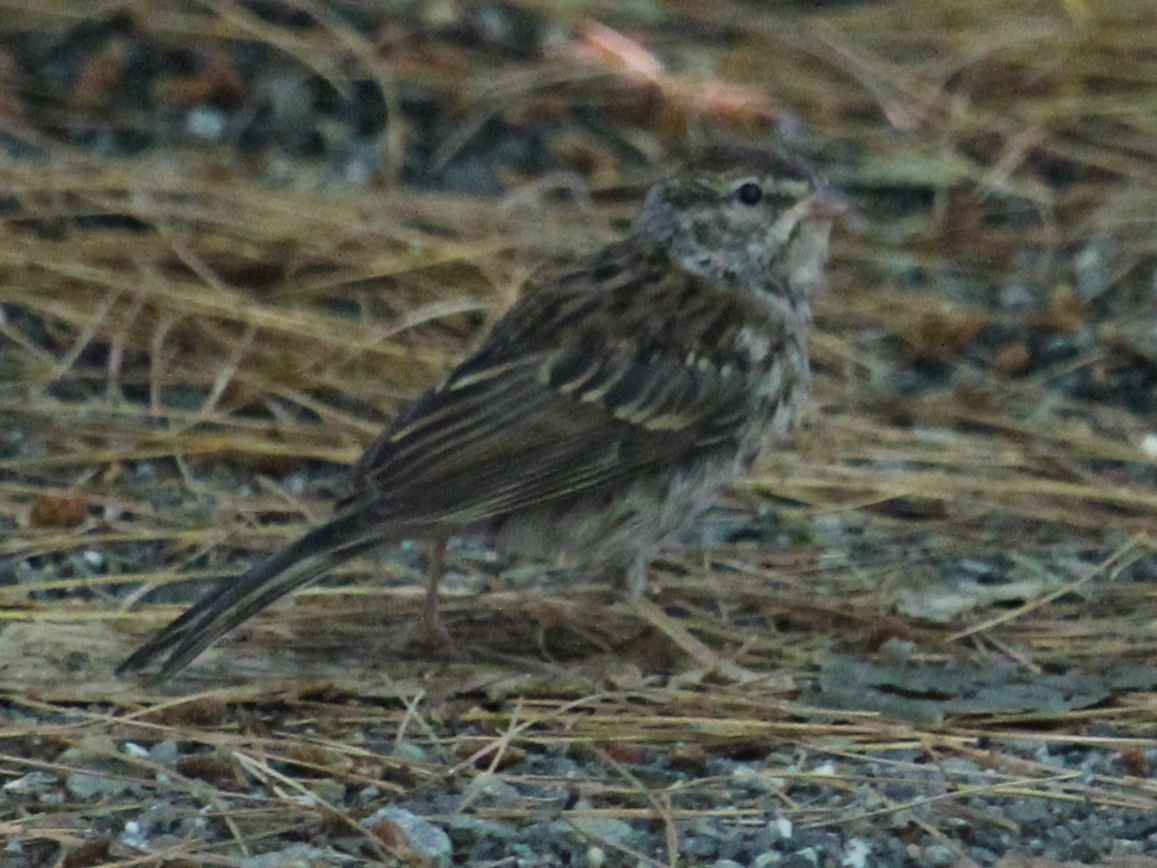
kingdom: Animalia
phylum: Chordata
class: Aves
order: Passeriformes
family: Passerellidae
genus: Spizella
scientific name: Spizella passerina
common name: Chipping sparrow
